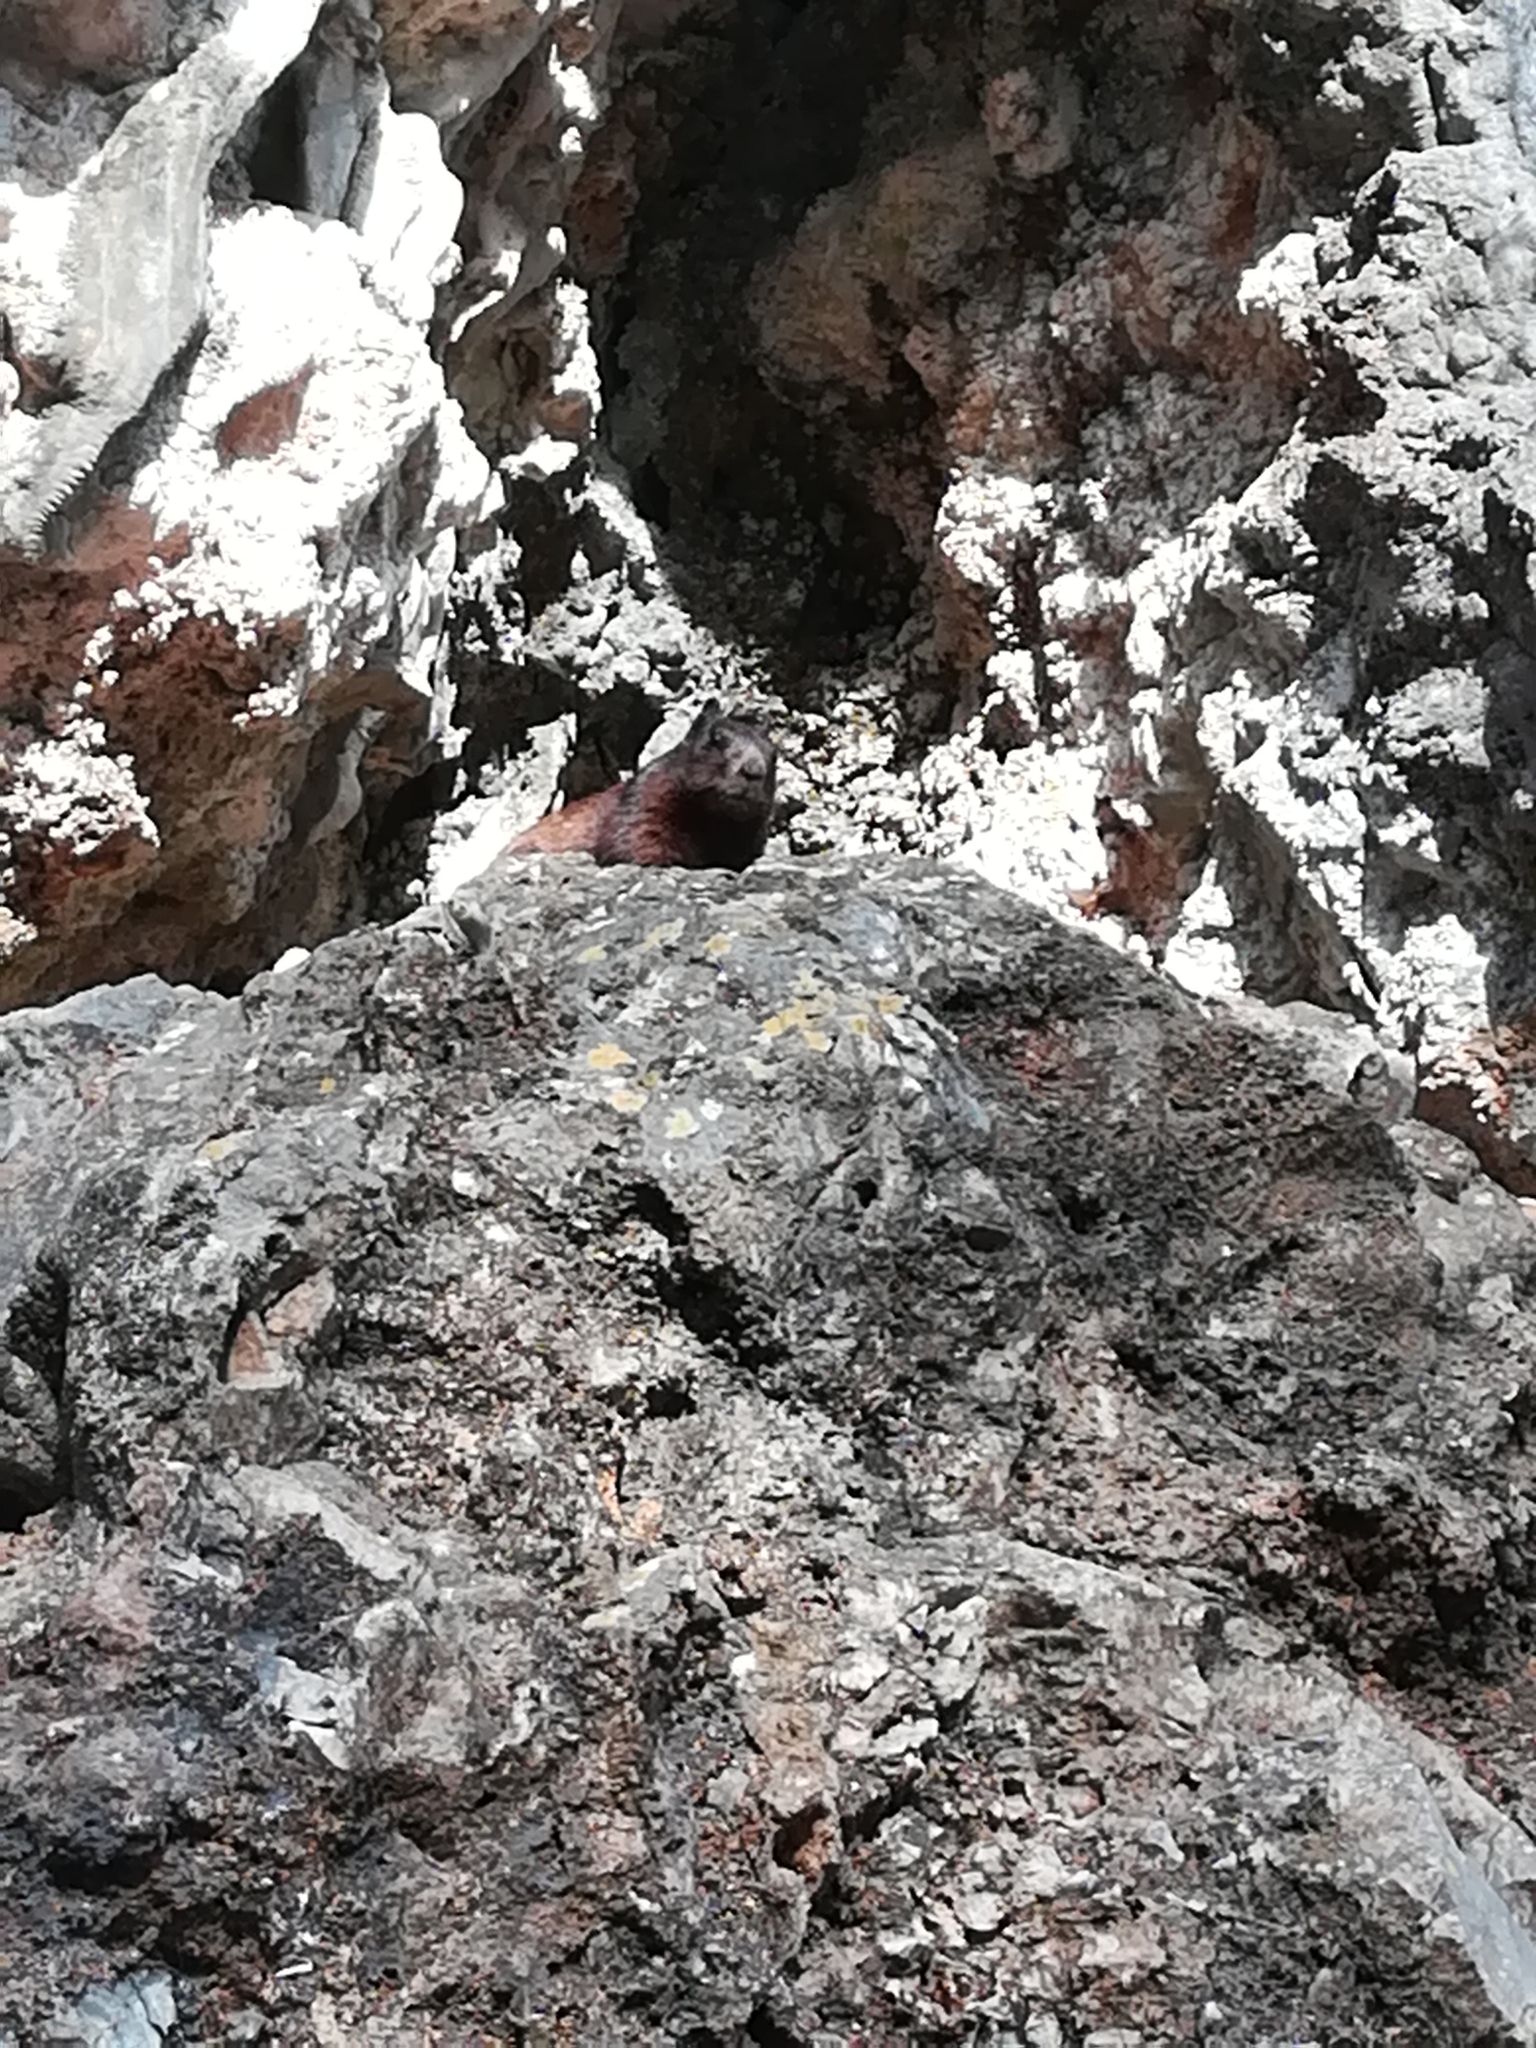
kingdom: Animalia
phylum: Chordata
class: Mammalia
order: Rodentia
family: Sciuridae
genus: Otospermophilus
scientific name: Otospermophilus variegatus
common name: Rock squirrel
